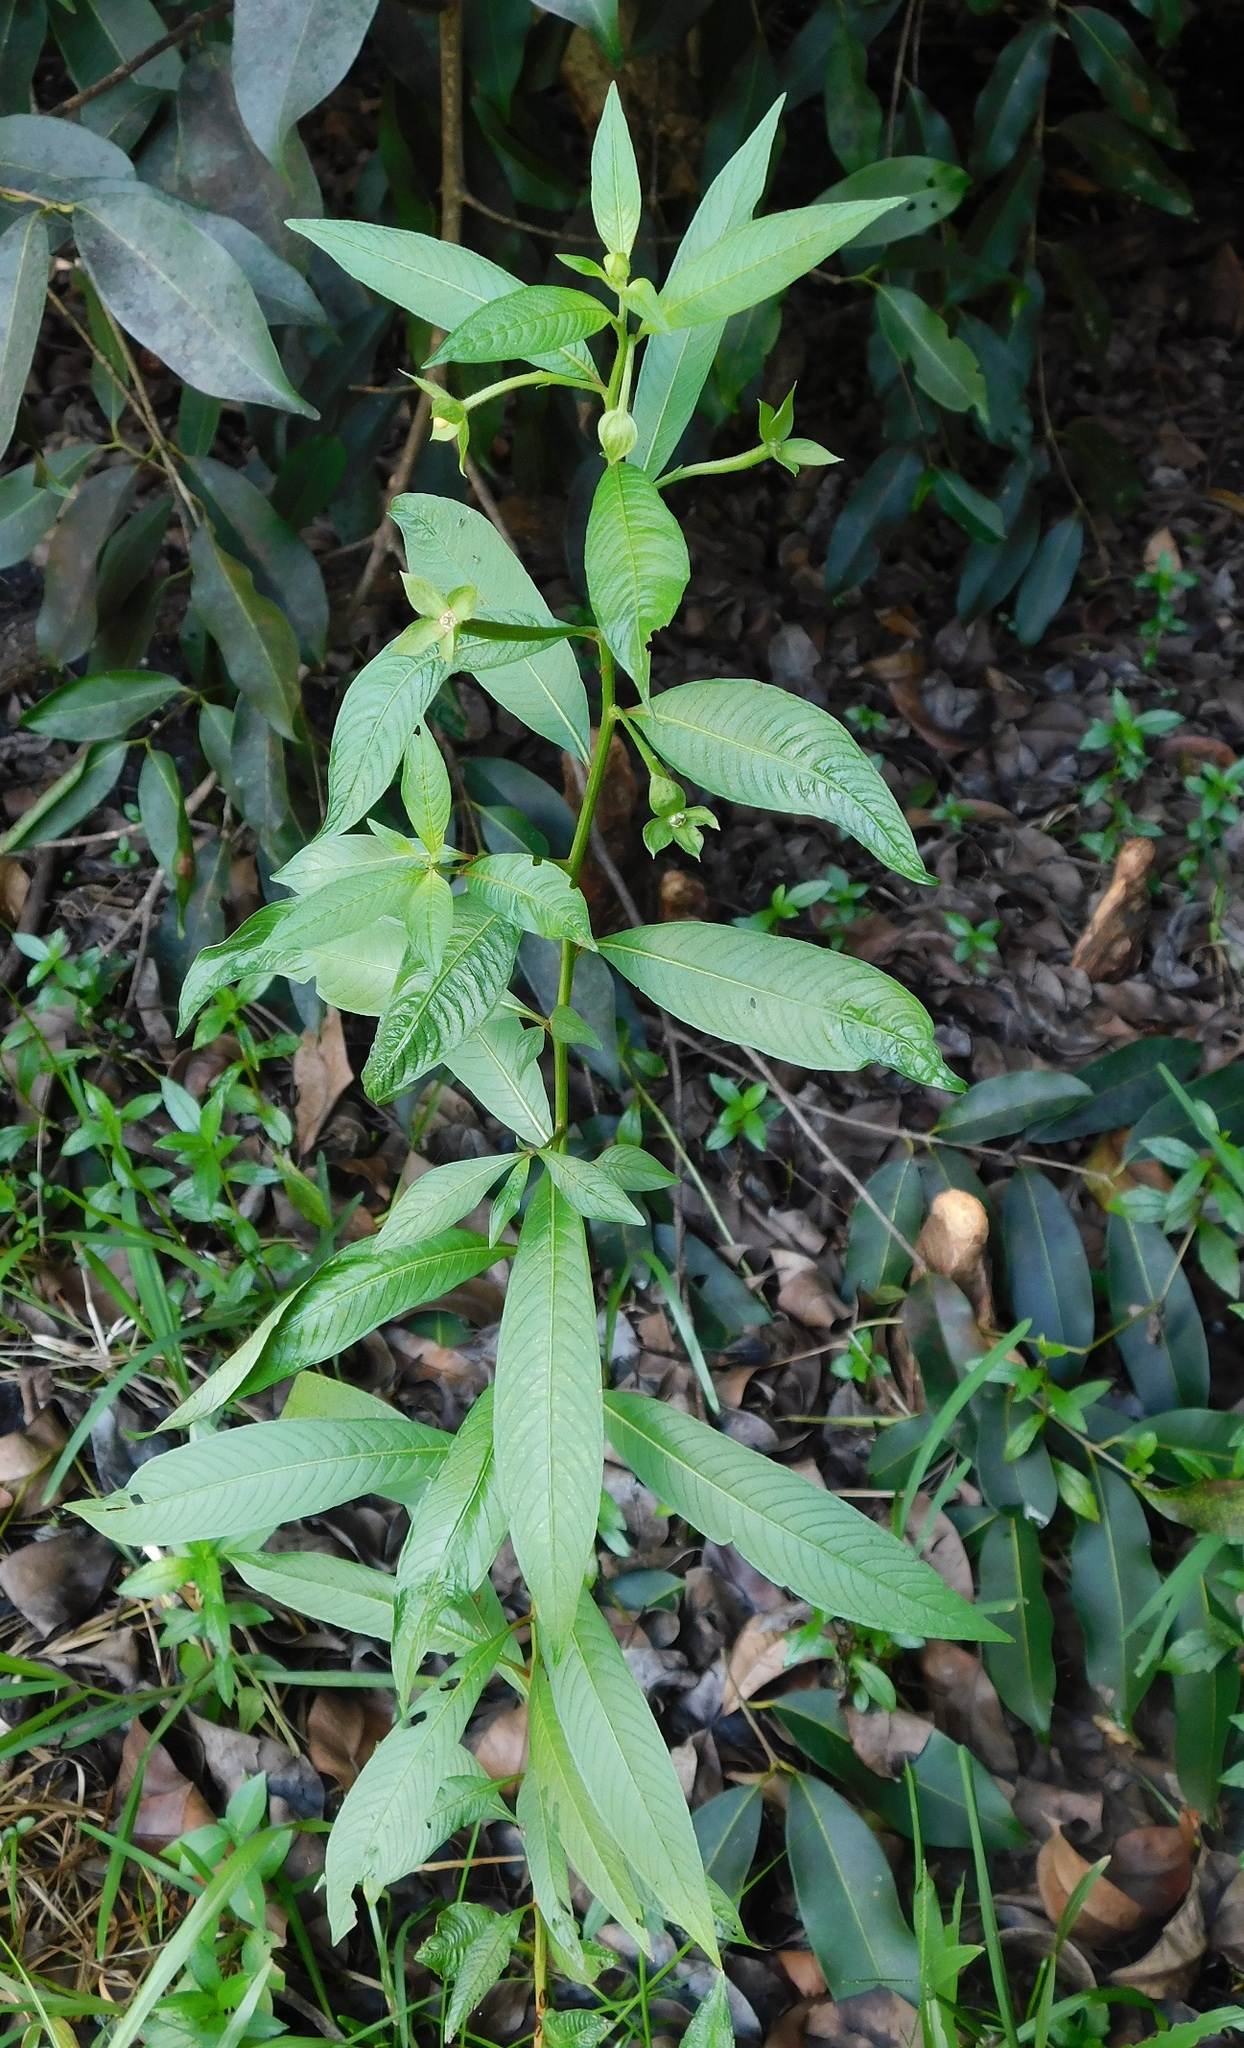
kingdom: Plantae
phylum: Tracheophyta
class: Magnoliopsida
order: Myrtales
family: Onagraceae
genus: Ludwigia
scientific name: Ludwigia octovalvis
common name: Water-primrose
